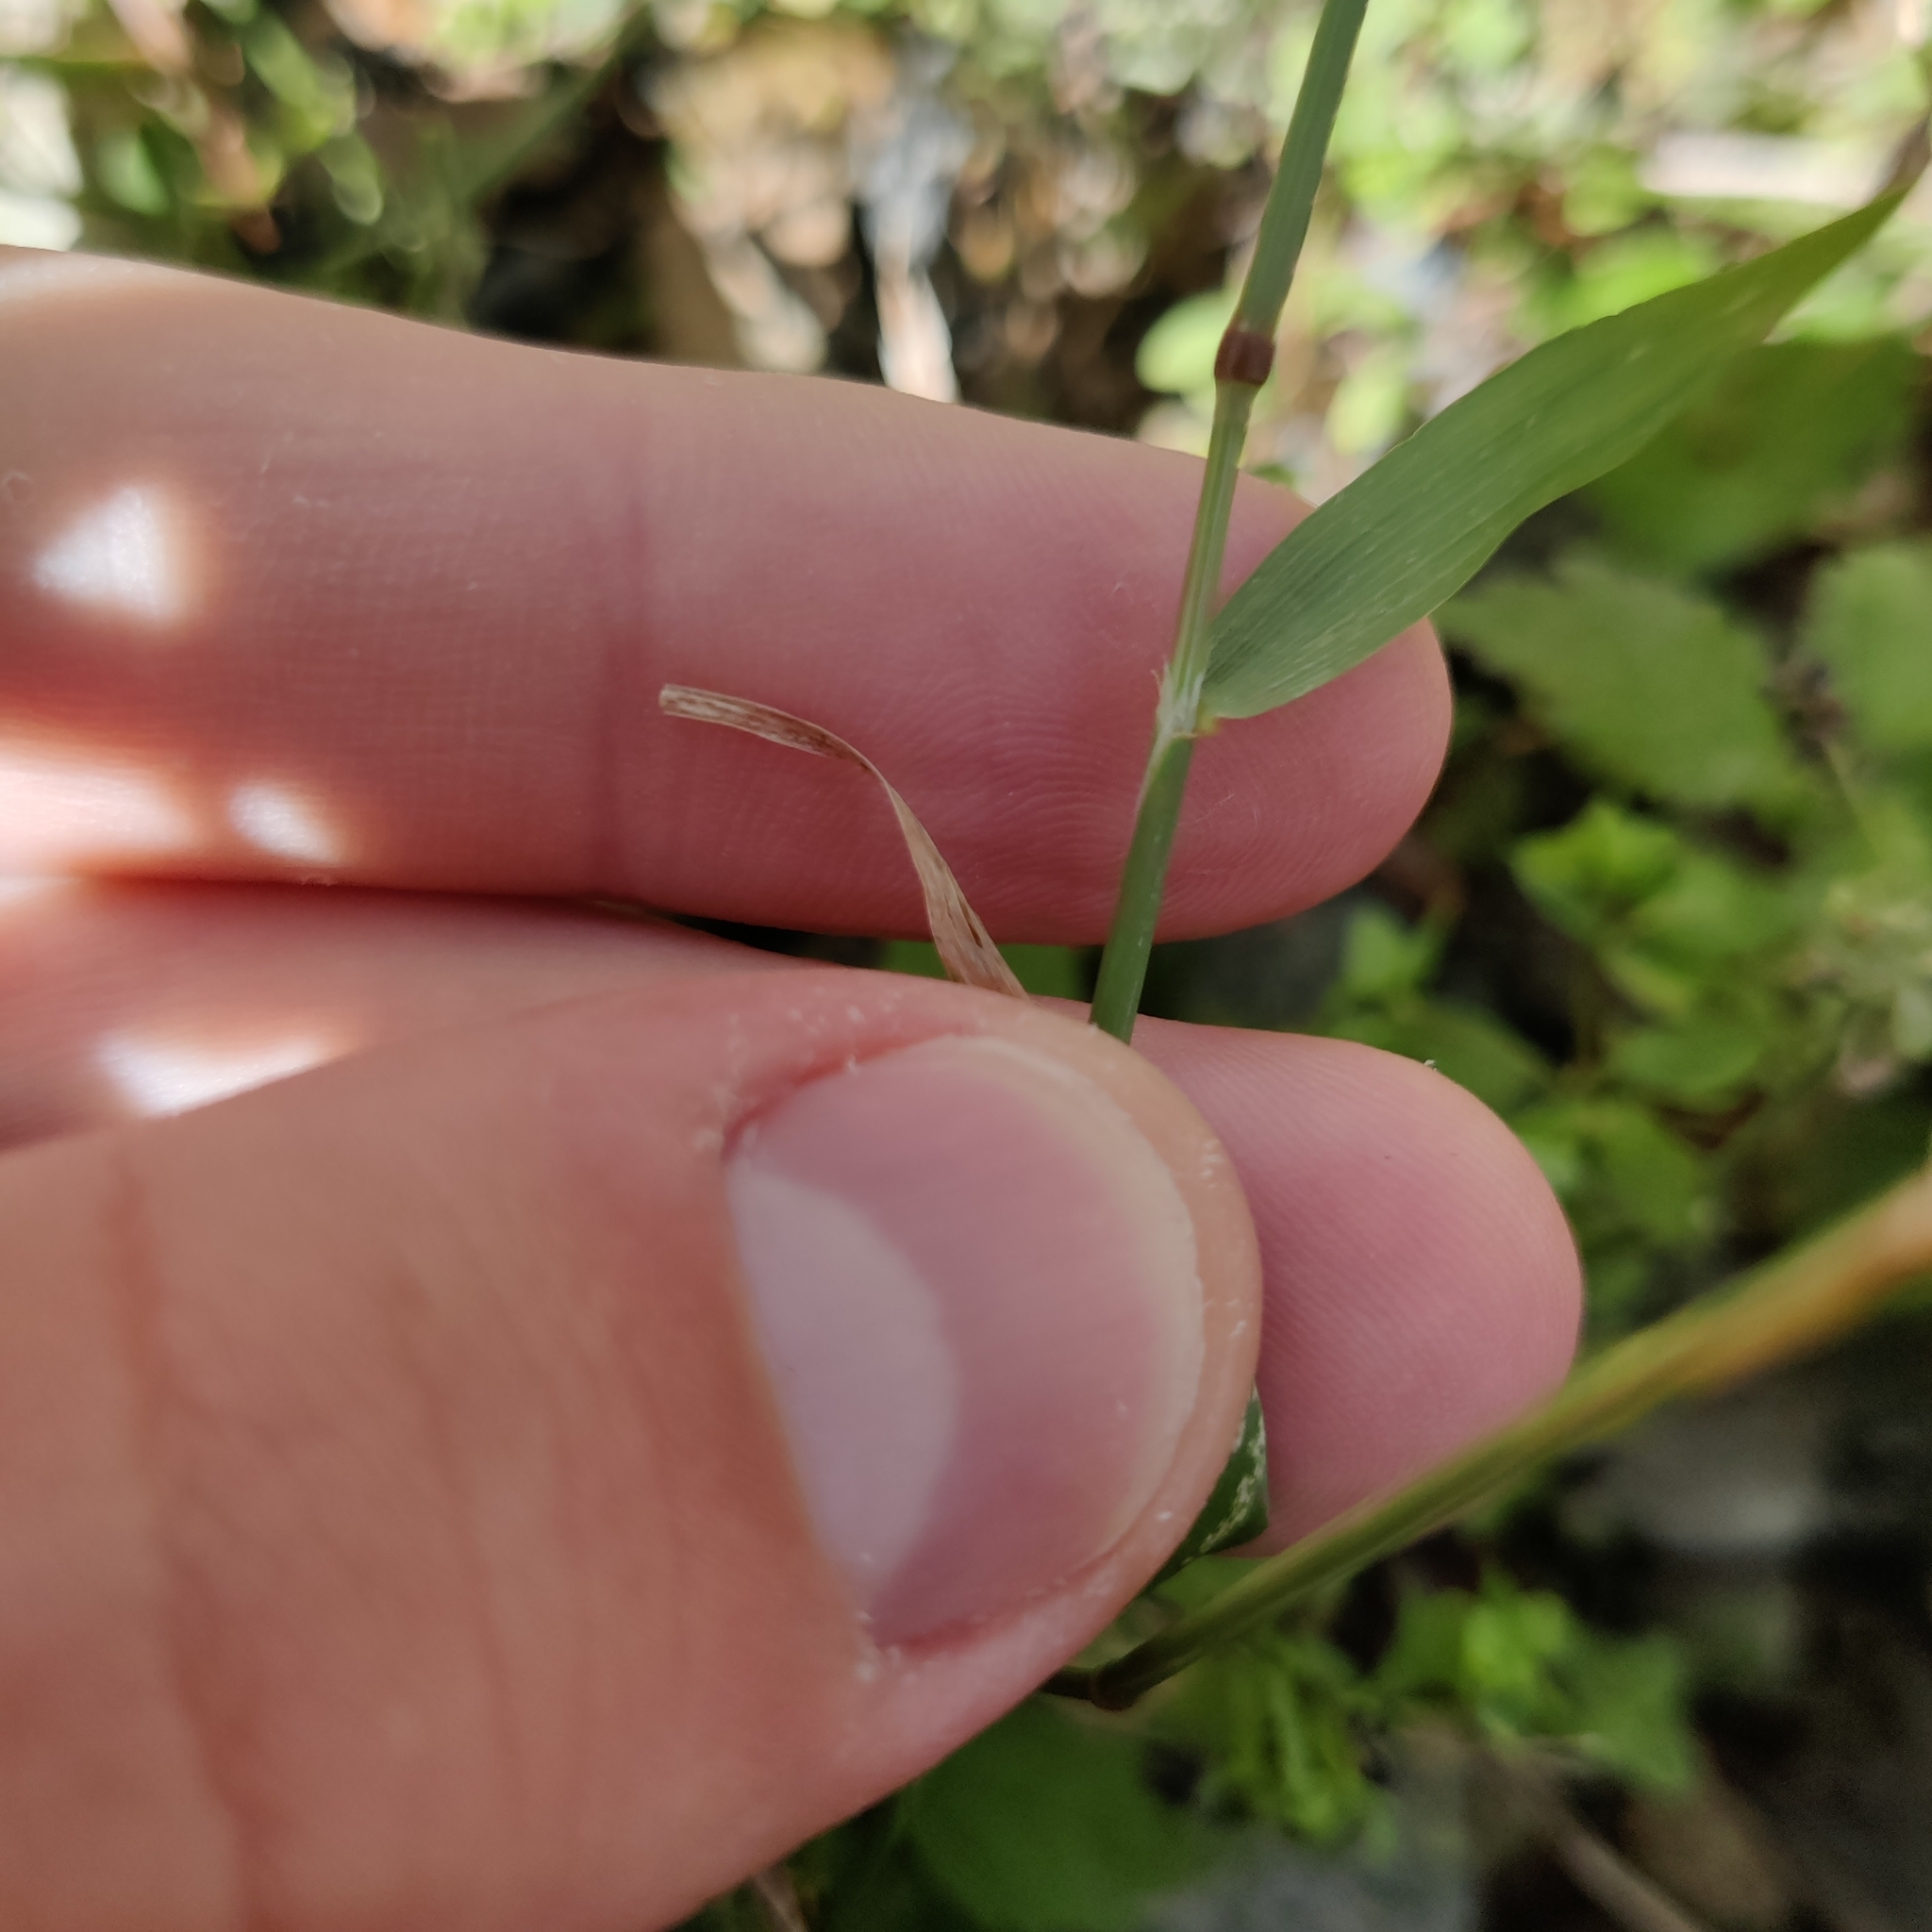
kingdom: Plantae
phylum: Tracheophyta
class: Liliopsida
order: Poales
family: Poaceae
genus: Polypogon
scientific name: Polypogon viridis
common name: Water bent
